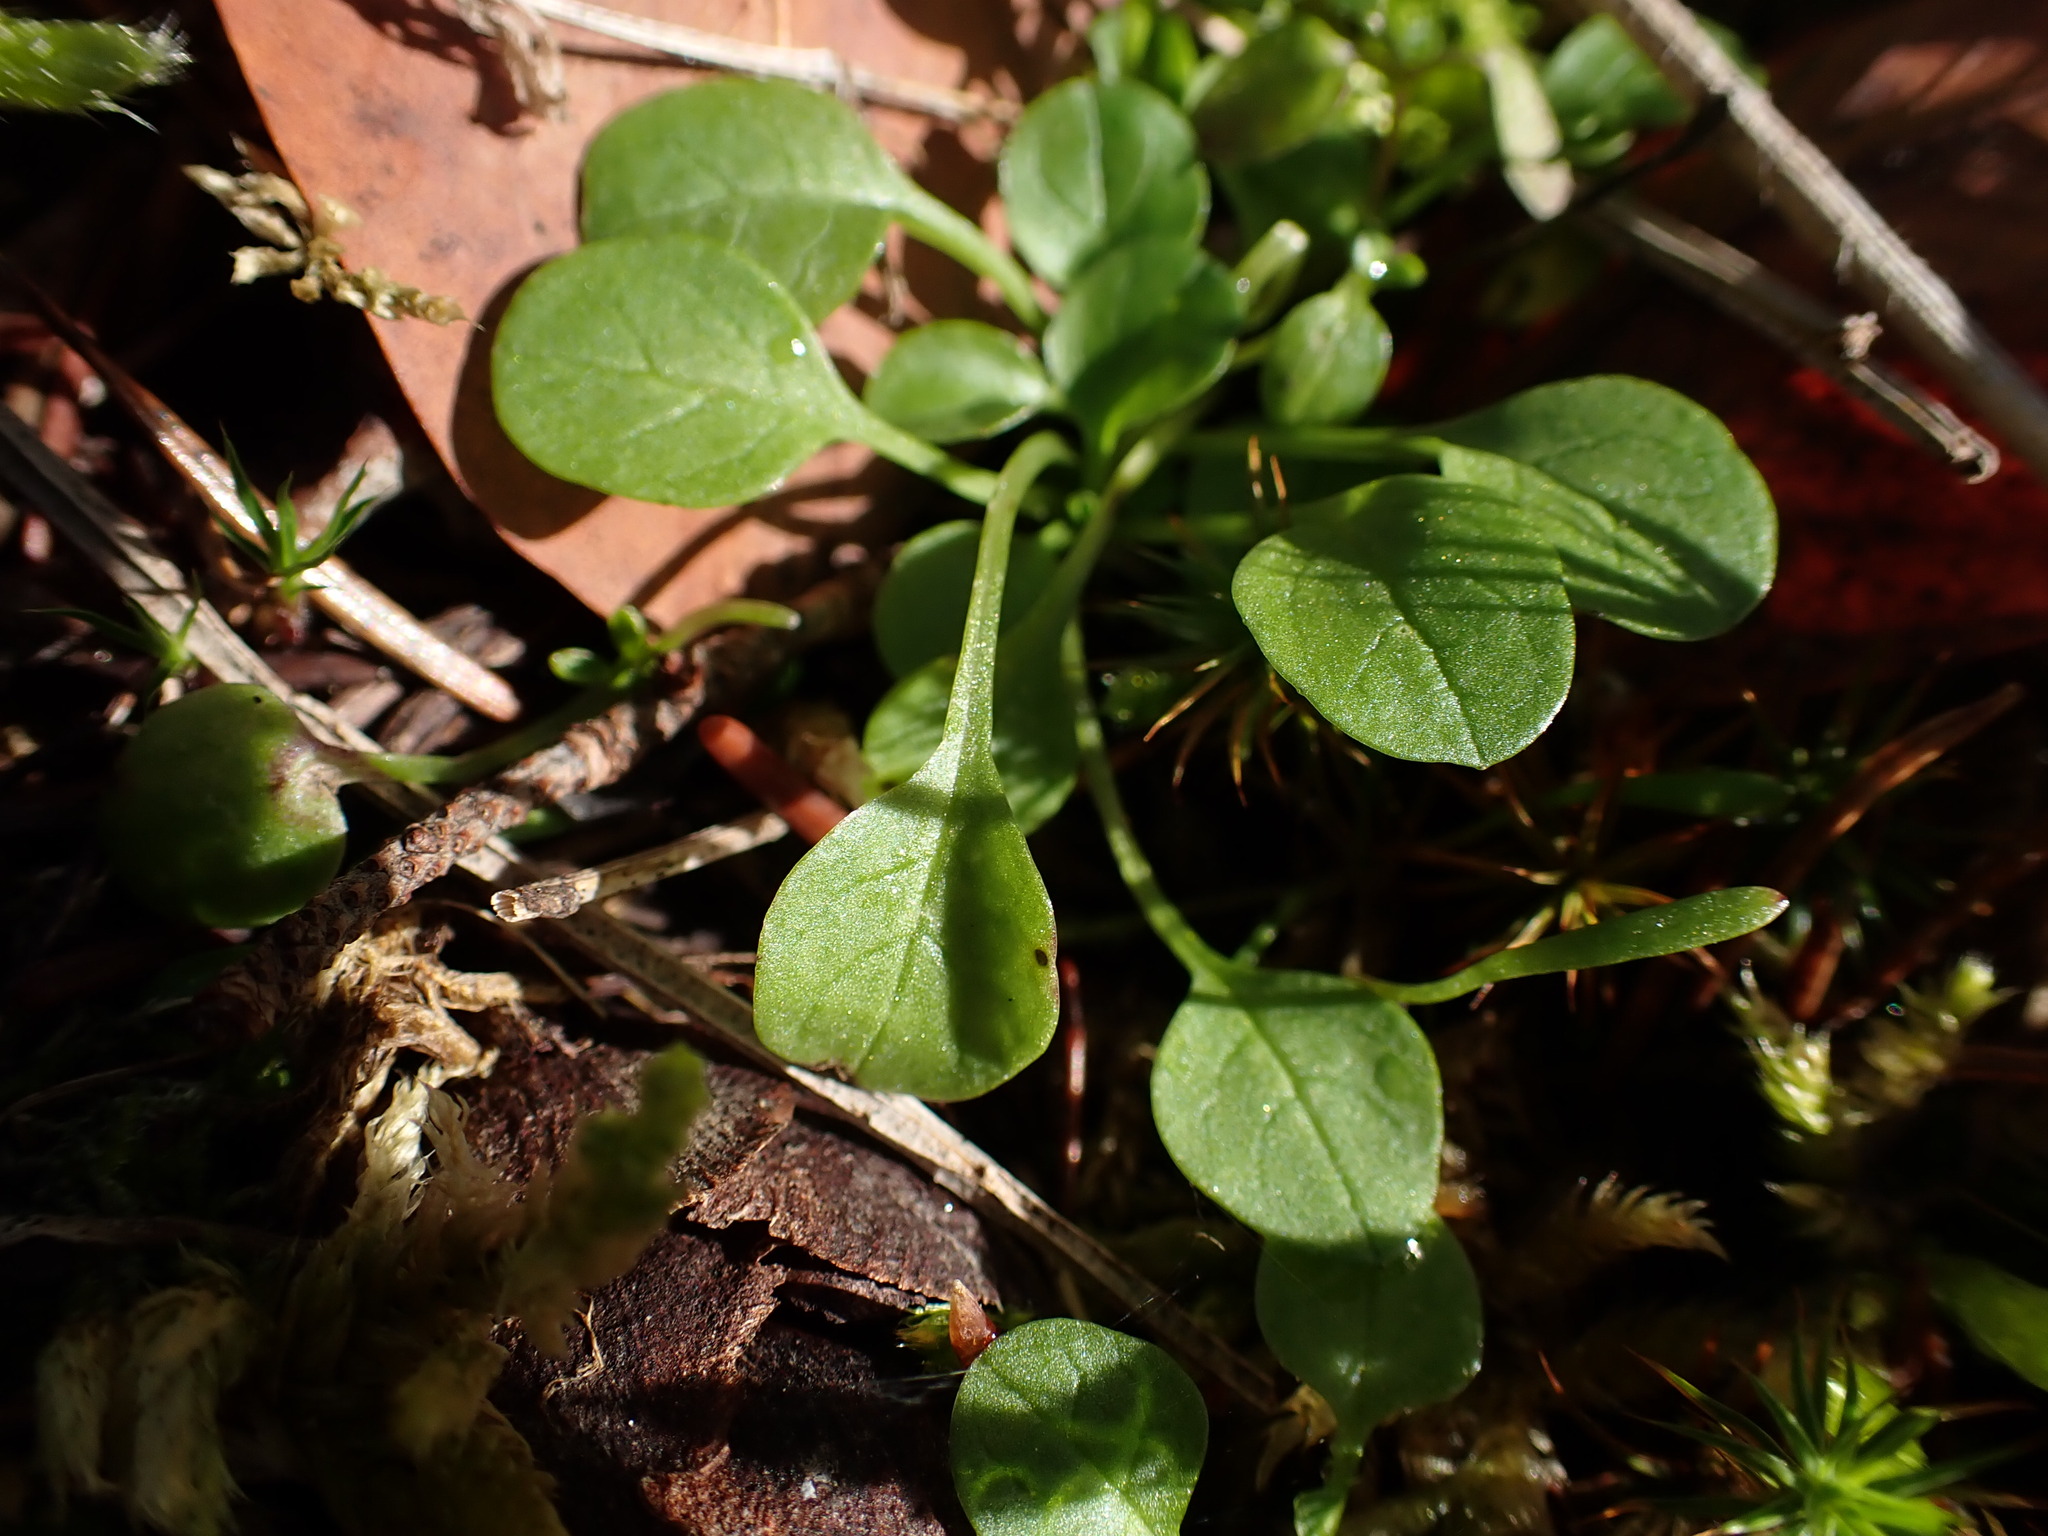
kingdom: Plantae
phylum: Tracheophyta
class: Magnoliopsida
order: Dipsacales
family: Caprifoliaceae
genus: Plectritis
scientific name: Plectritis congesta
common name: Pink plectritis
